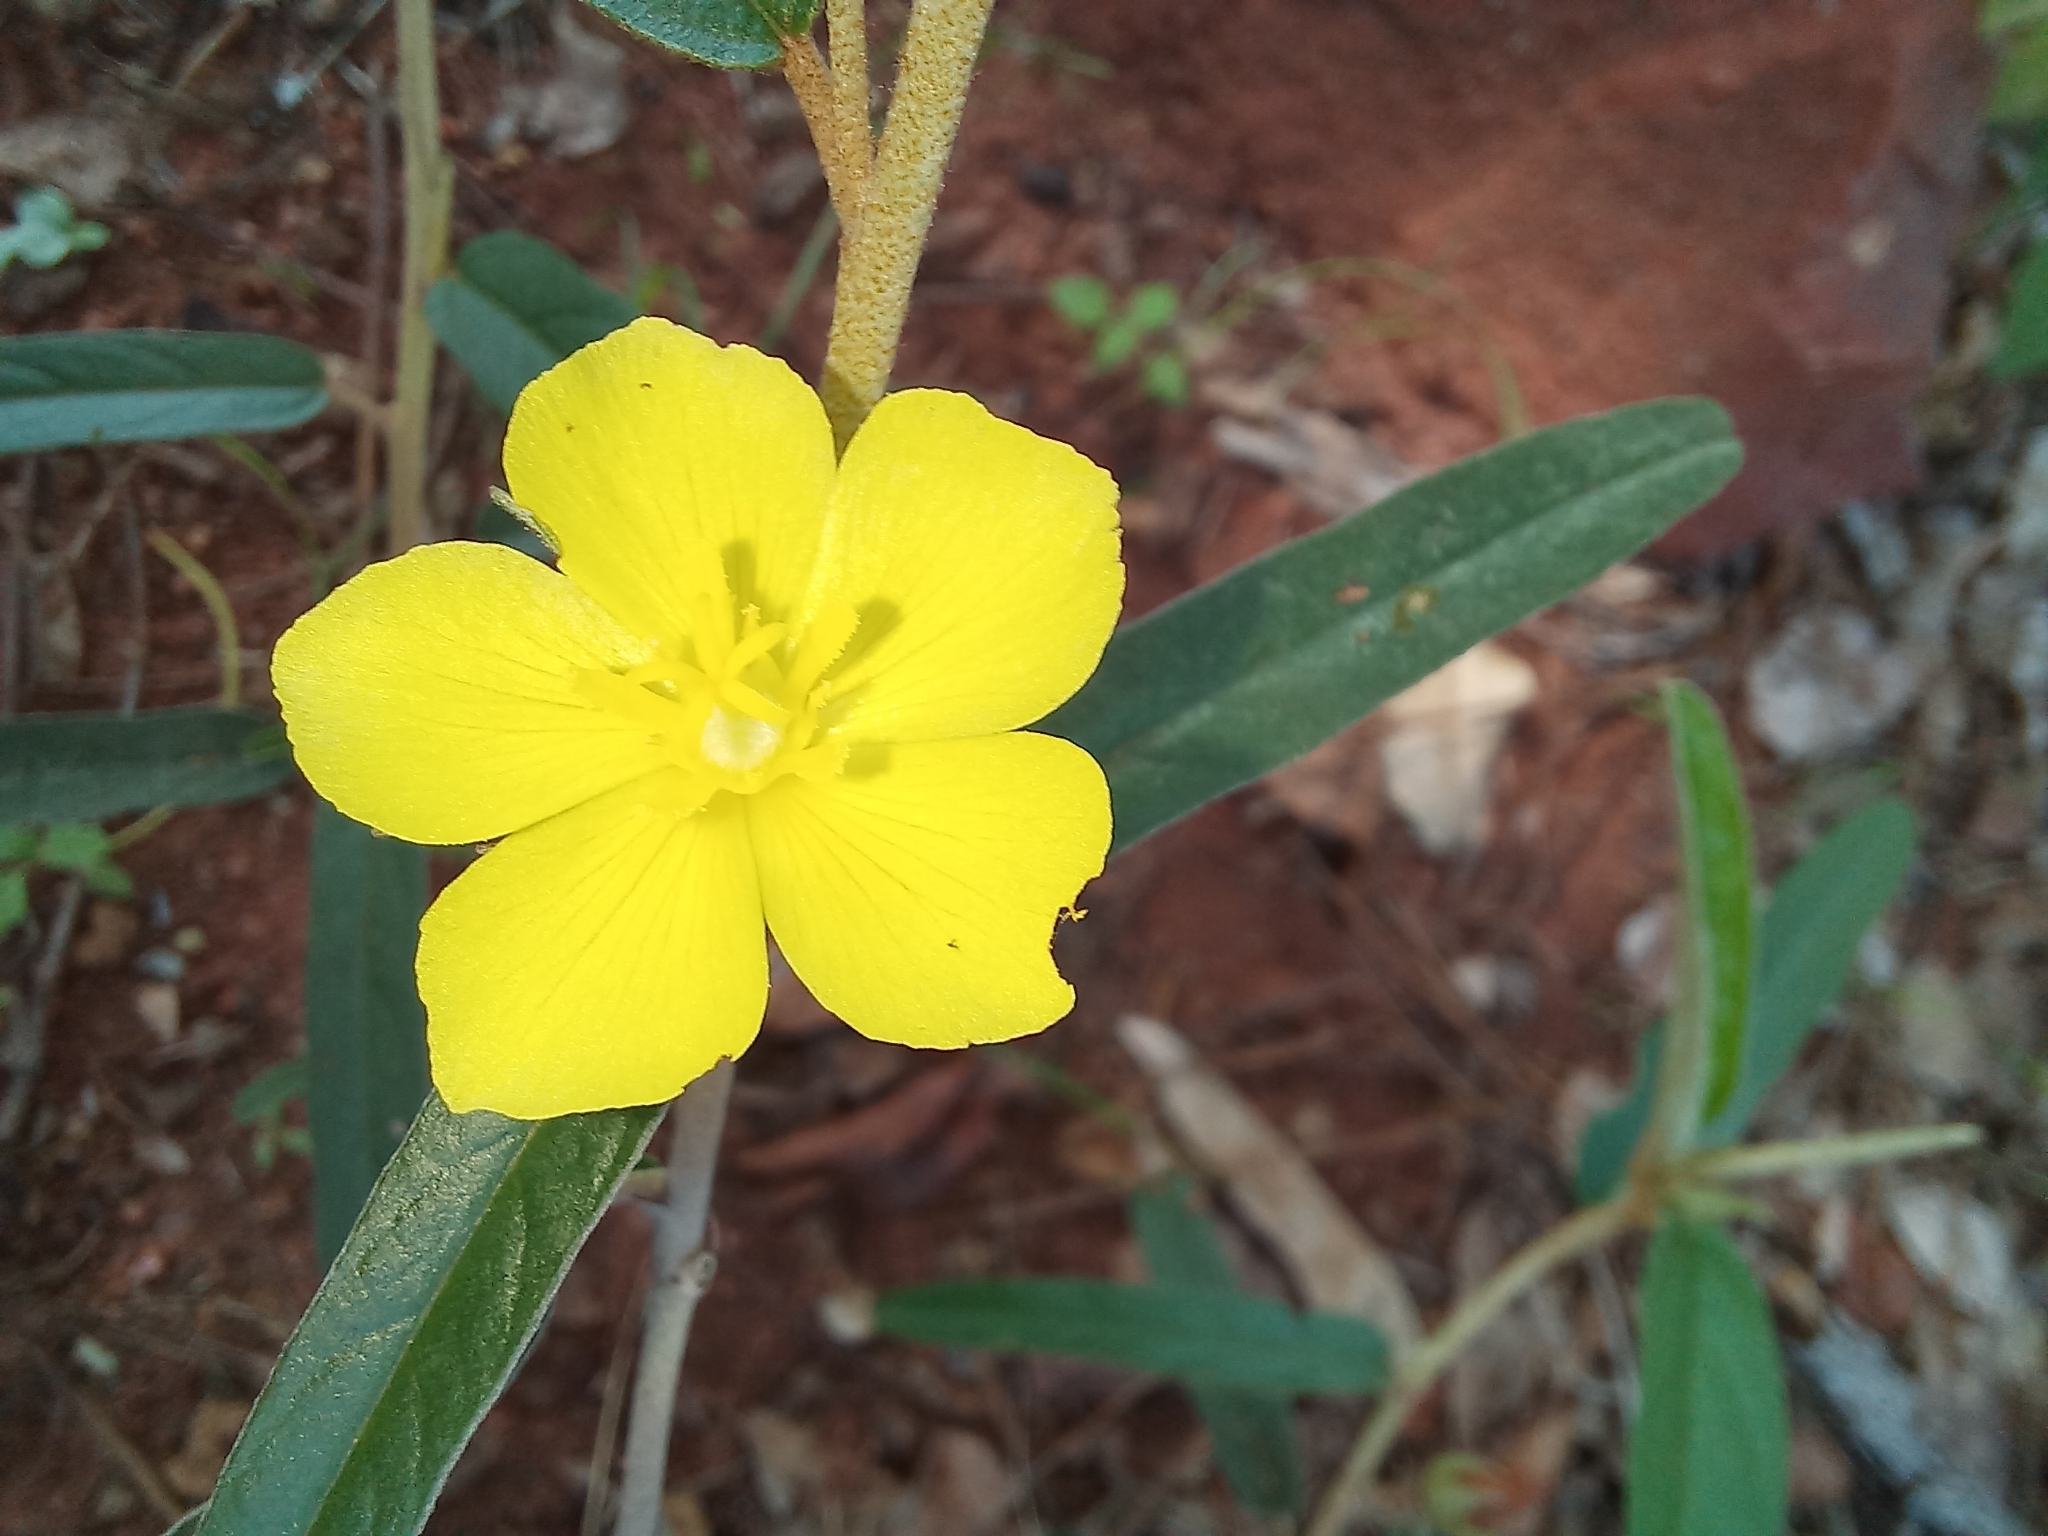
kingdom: Plantae
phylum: Tracheophyta
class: Magnoliopsida
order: Malvales
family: Malvaceae
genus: Melhania
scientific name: Melhania prostrata
